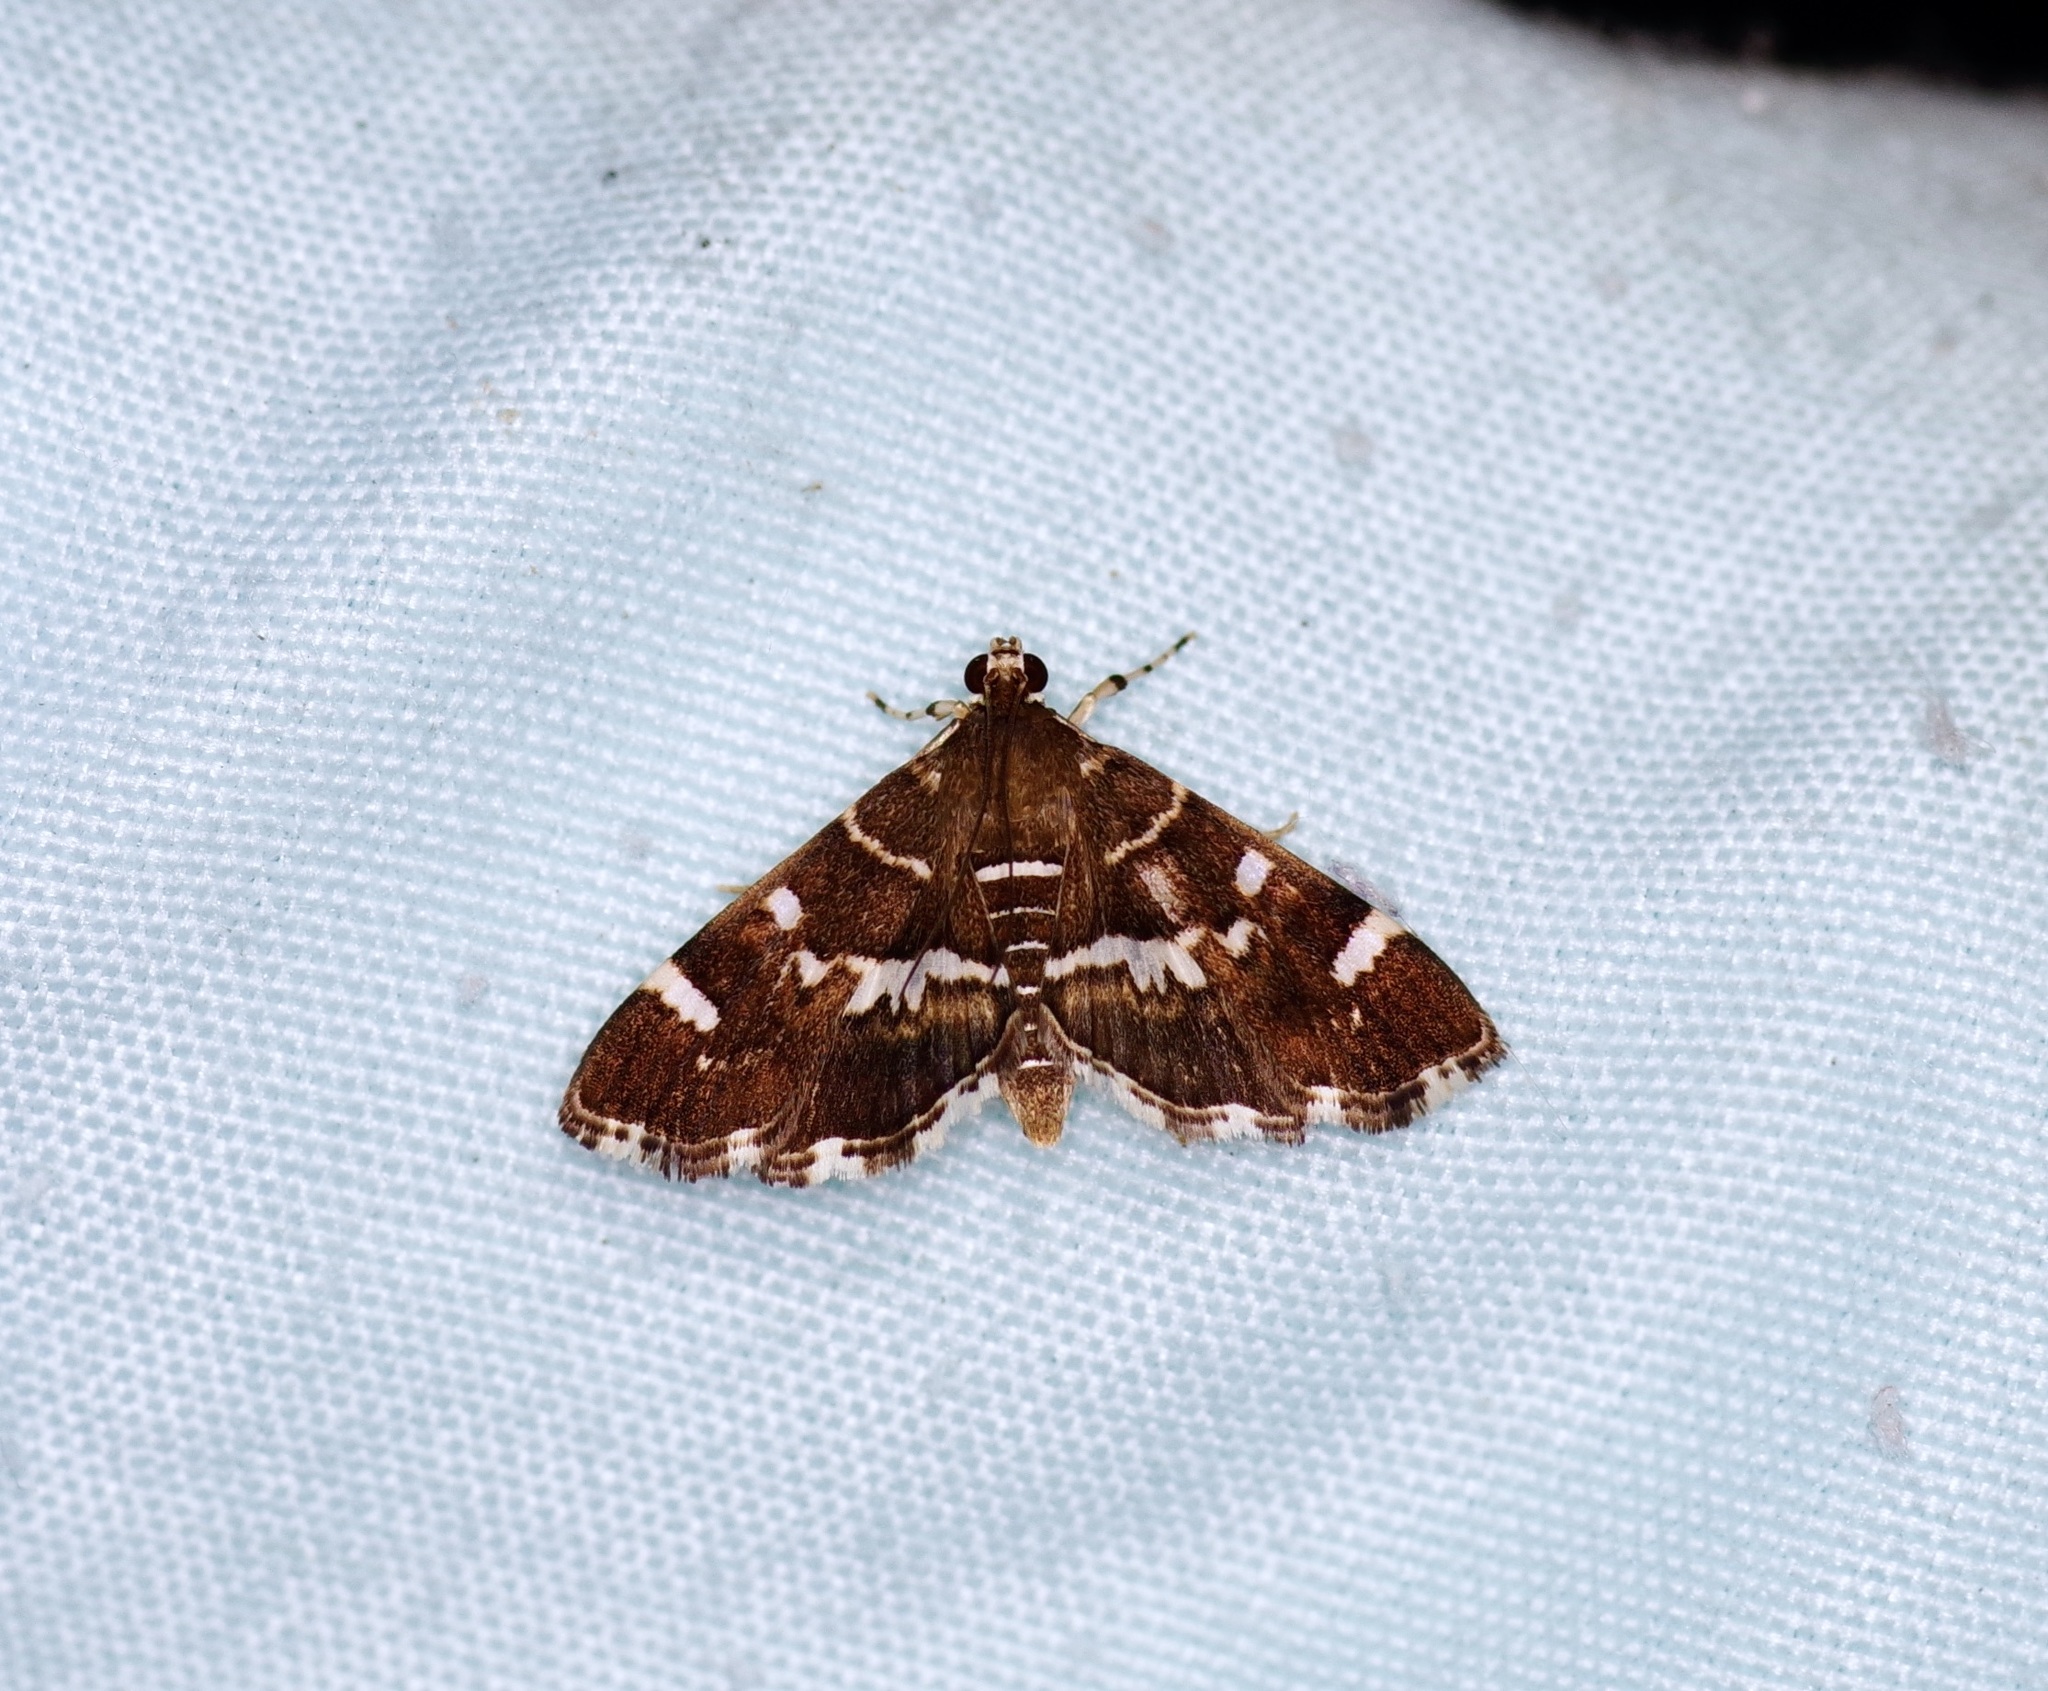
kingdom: Animalia
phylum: Arthropoda
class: Insecta
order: Lepidoptera
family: Crambidae
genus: Hymenia
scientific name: Hymenia perspectalis
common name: Spotted beet webworm
